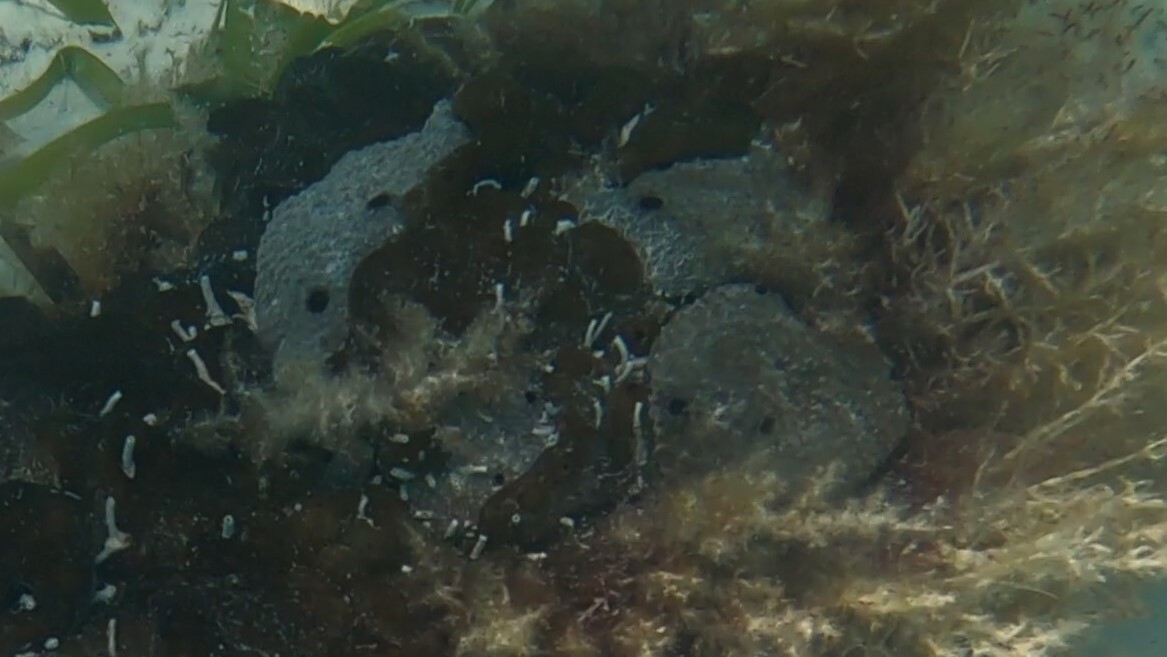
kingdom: Animalia
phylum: Porifera
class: Demospongiae
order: Dictyoceratida
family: Irciniidae
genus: Ircinia
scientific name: Ircinia felix
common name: Stinker sponge
